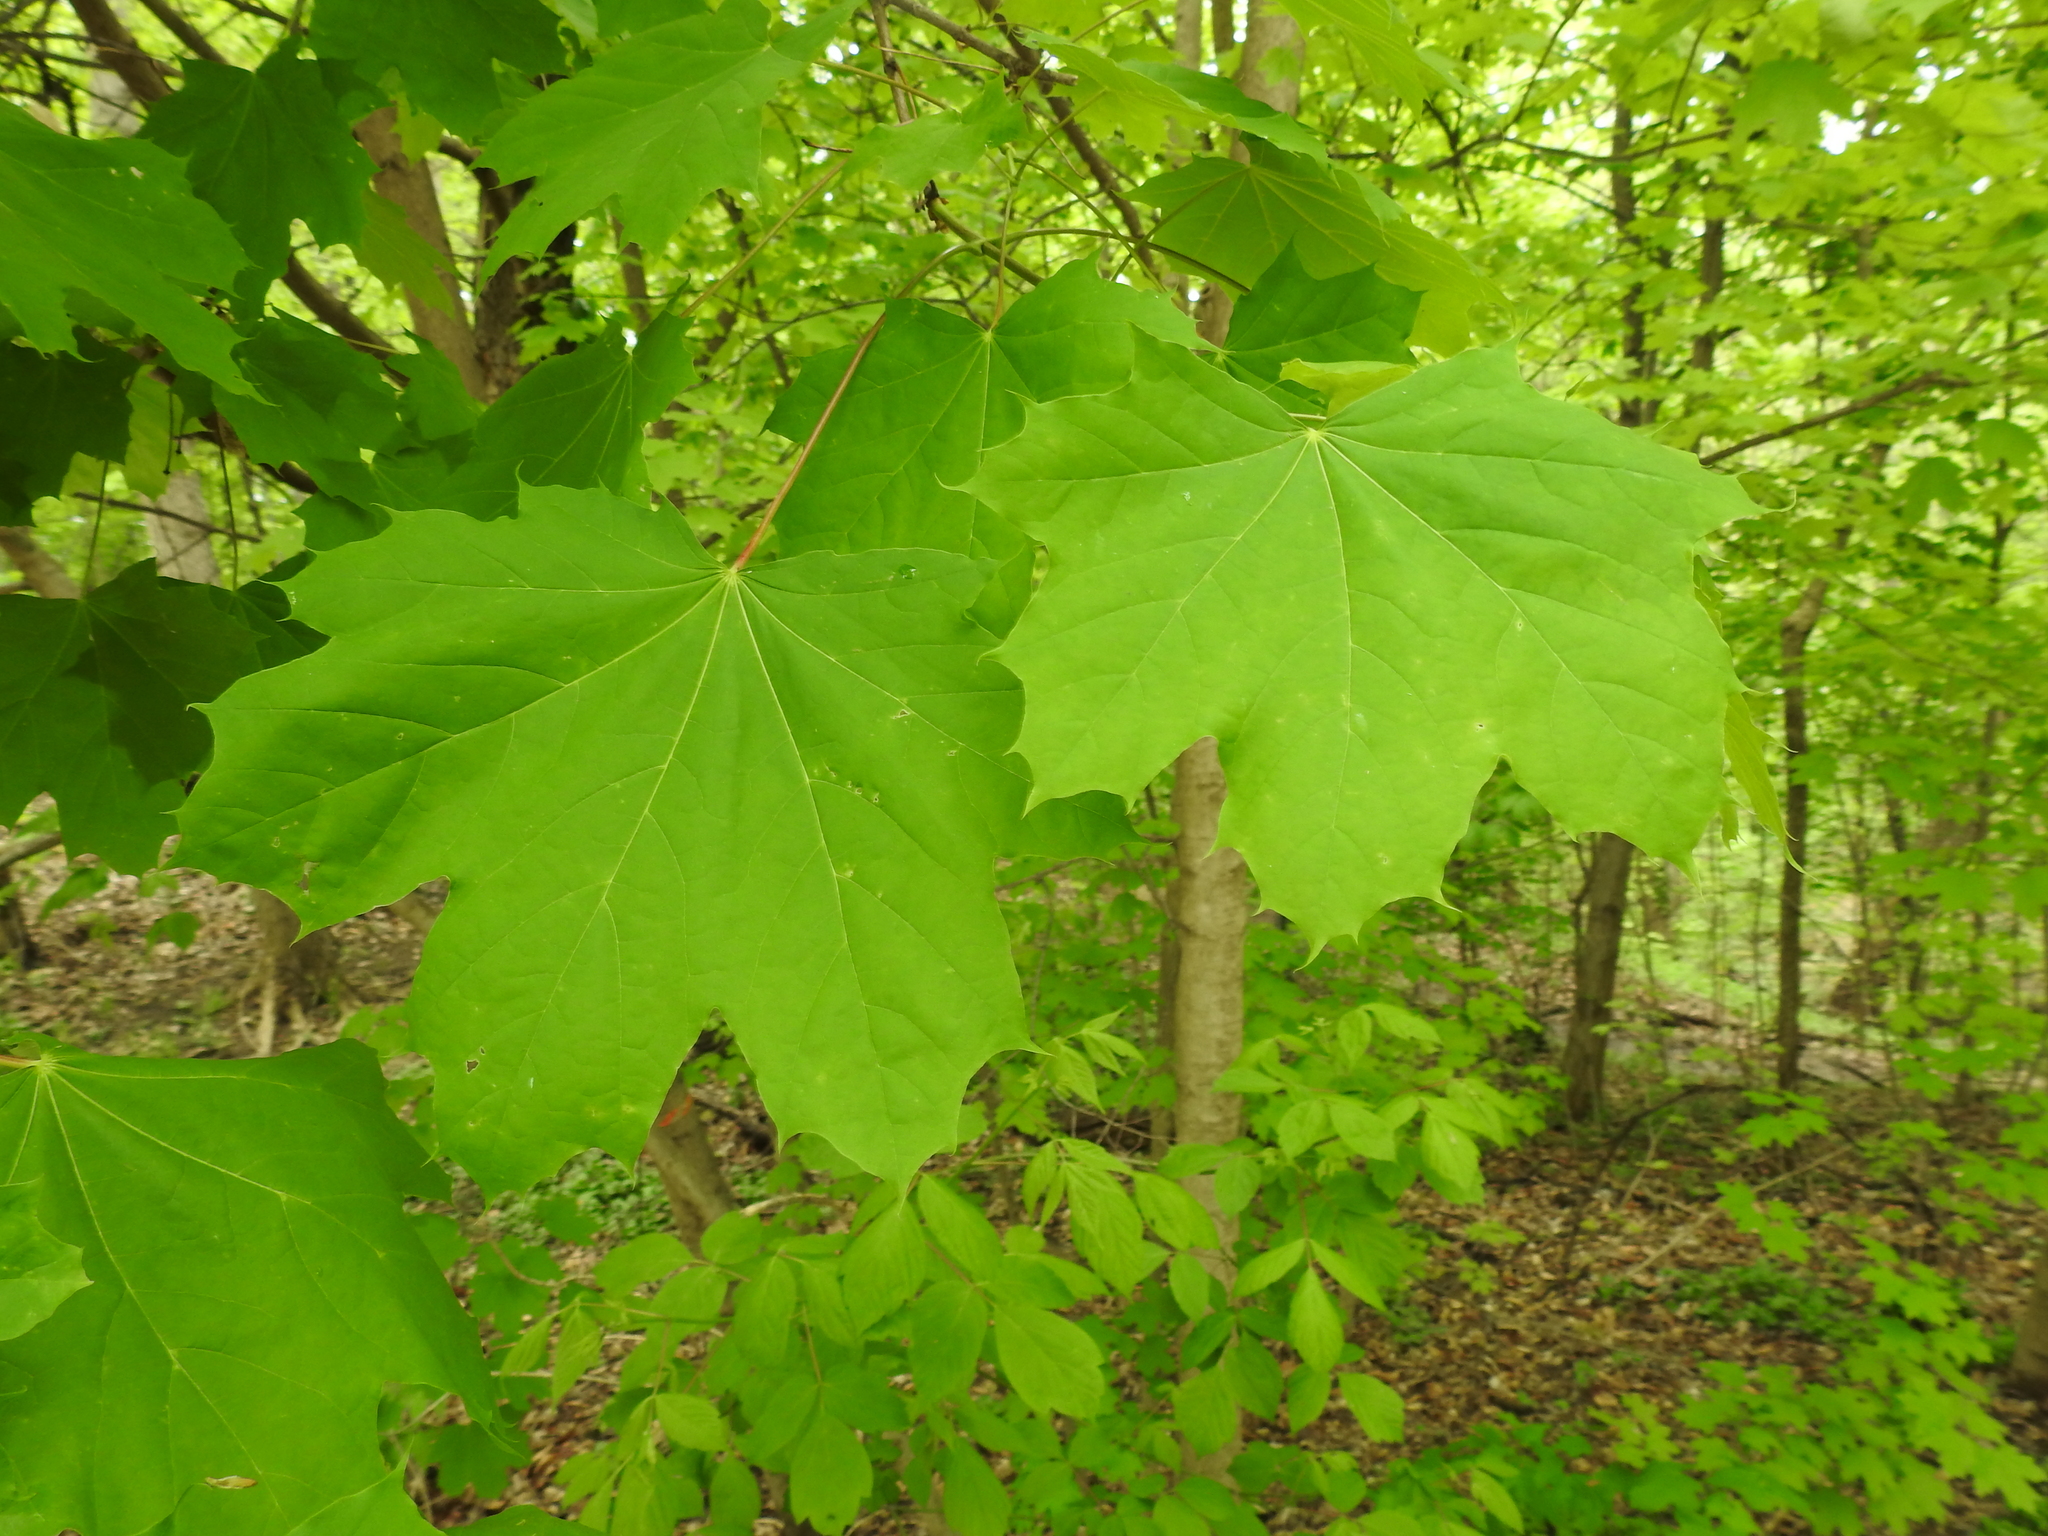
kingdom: Plantae
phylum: Tracheophyta
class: Magnoliopsida
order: Sapindales
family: Sapindaceae
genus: Acer
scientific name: Acer platanoides
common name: Norway maple
